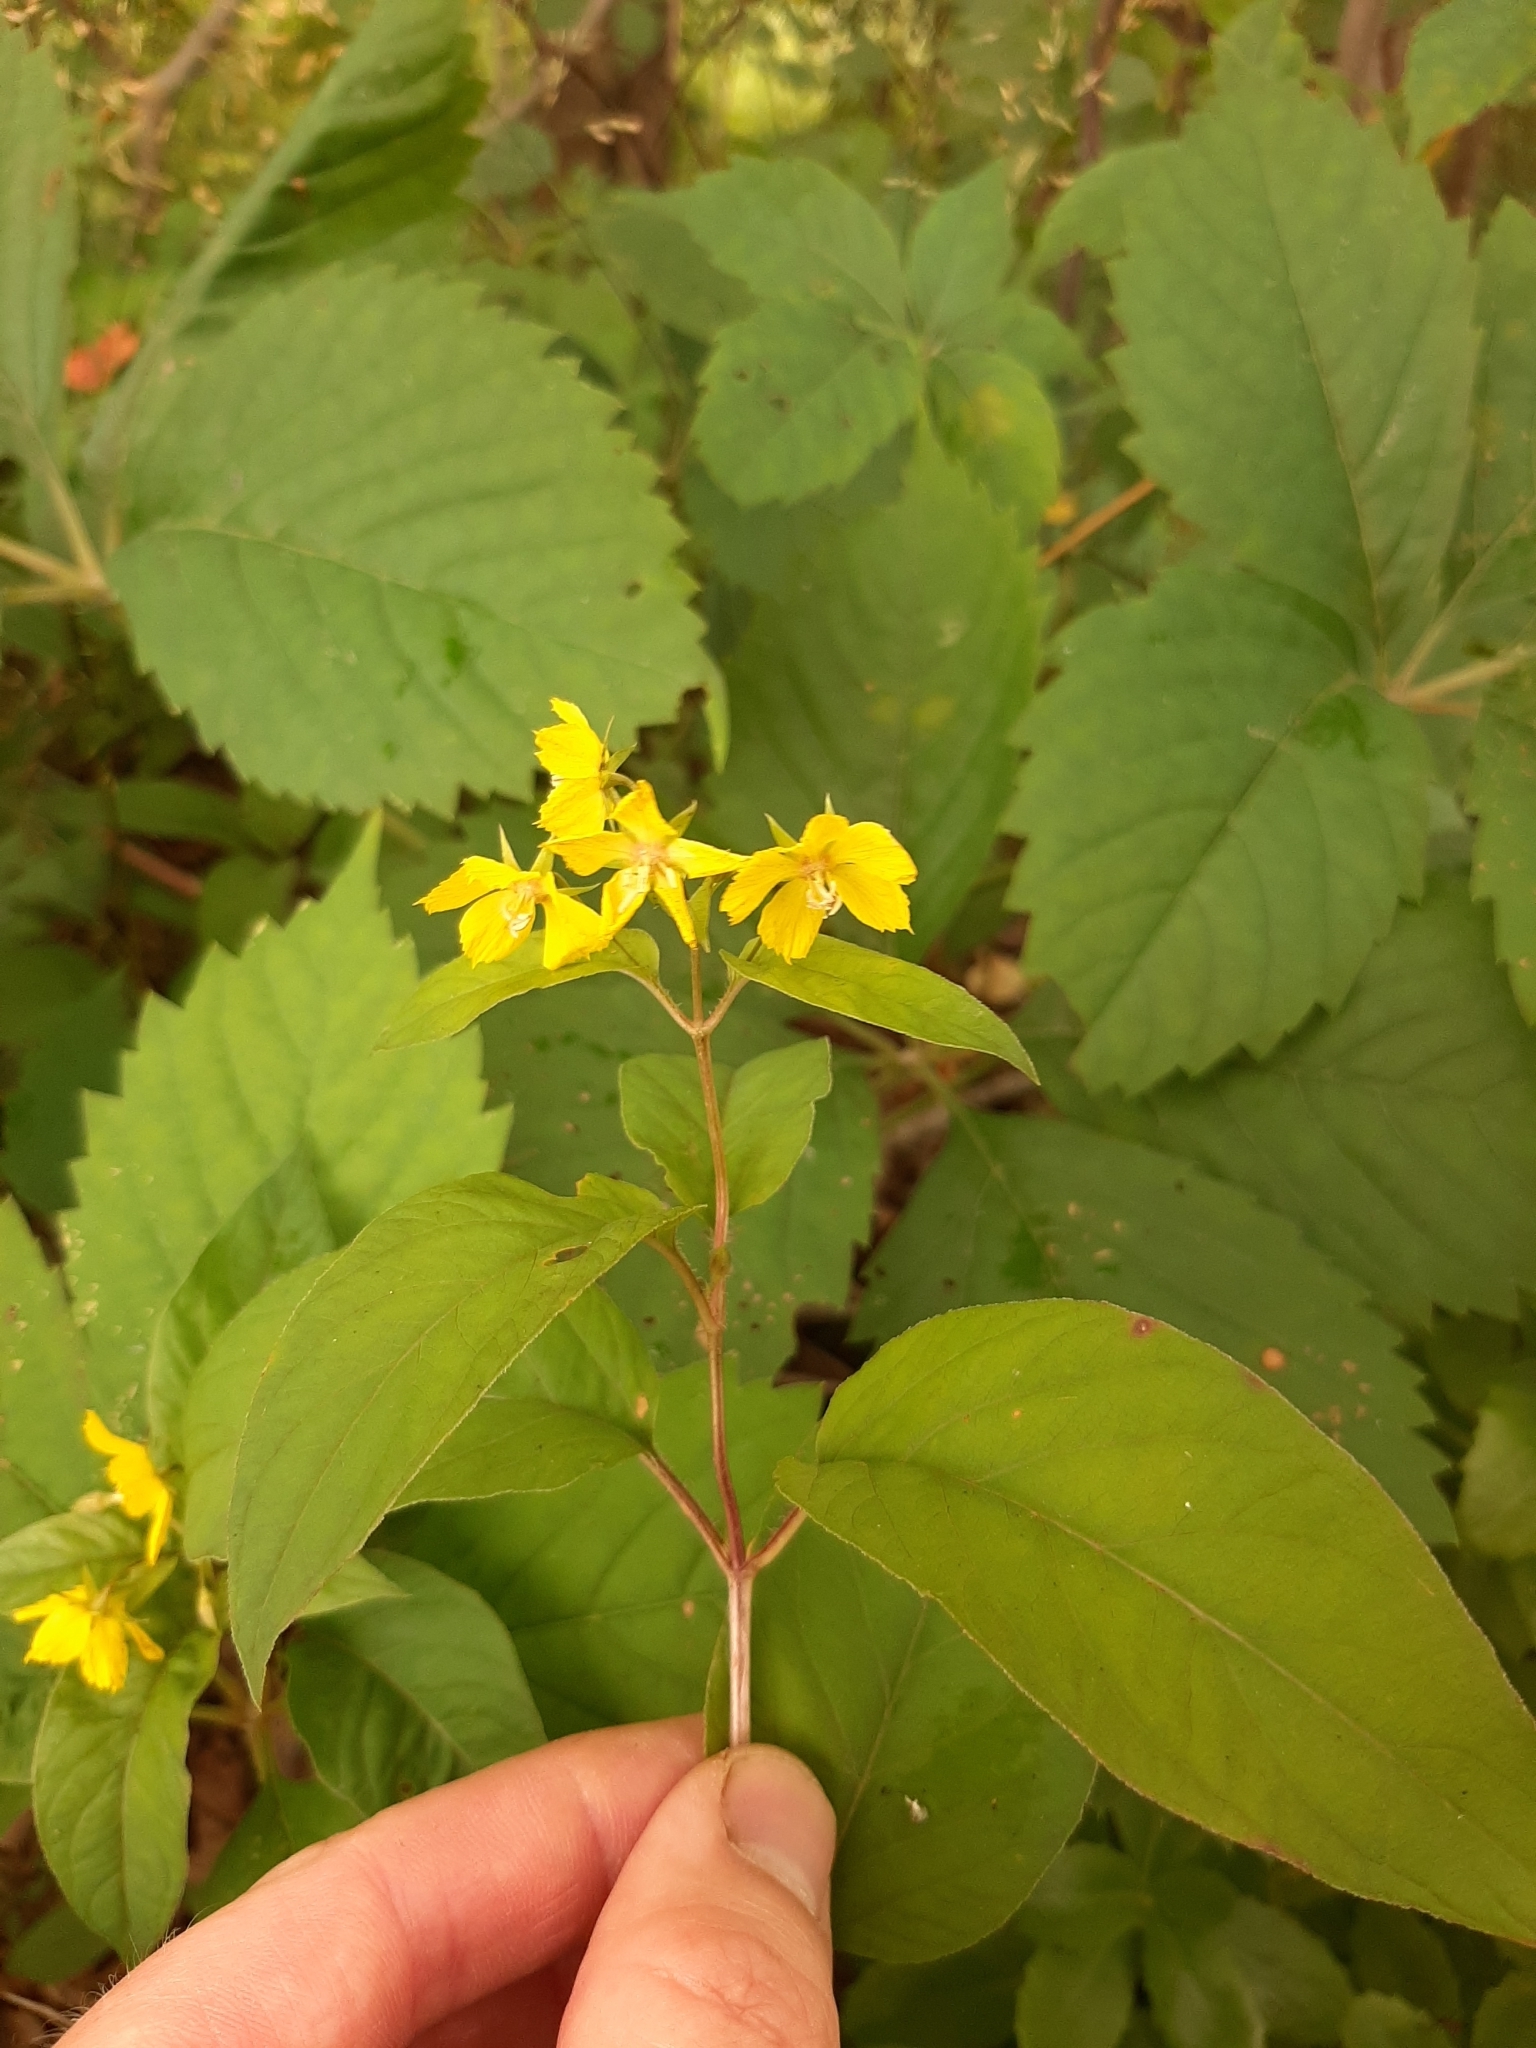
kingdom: Plantae
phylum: Tracheophyta
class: Magnoliopsida
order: Ericales
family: Primulaceae
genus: Lysimachia
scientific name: Lysimachia ciliata
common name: Fringed loosestrife
